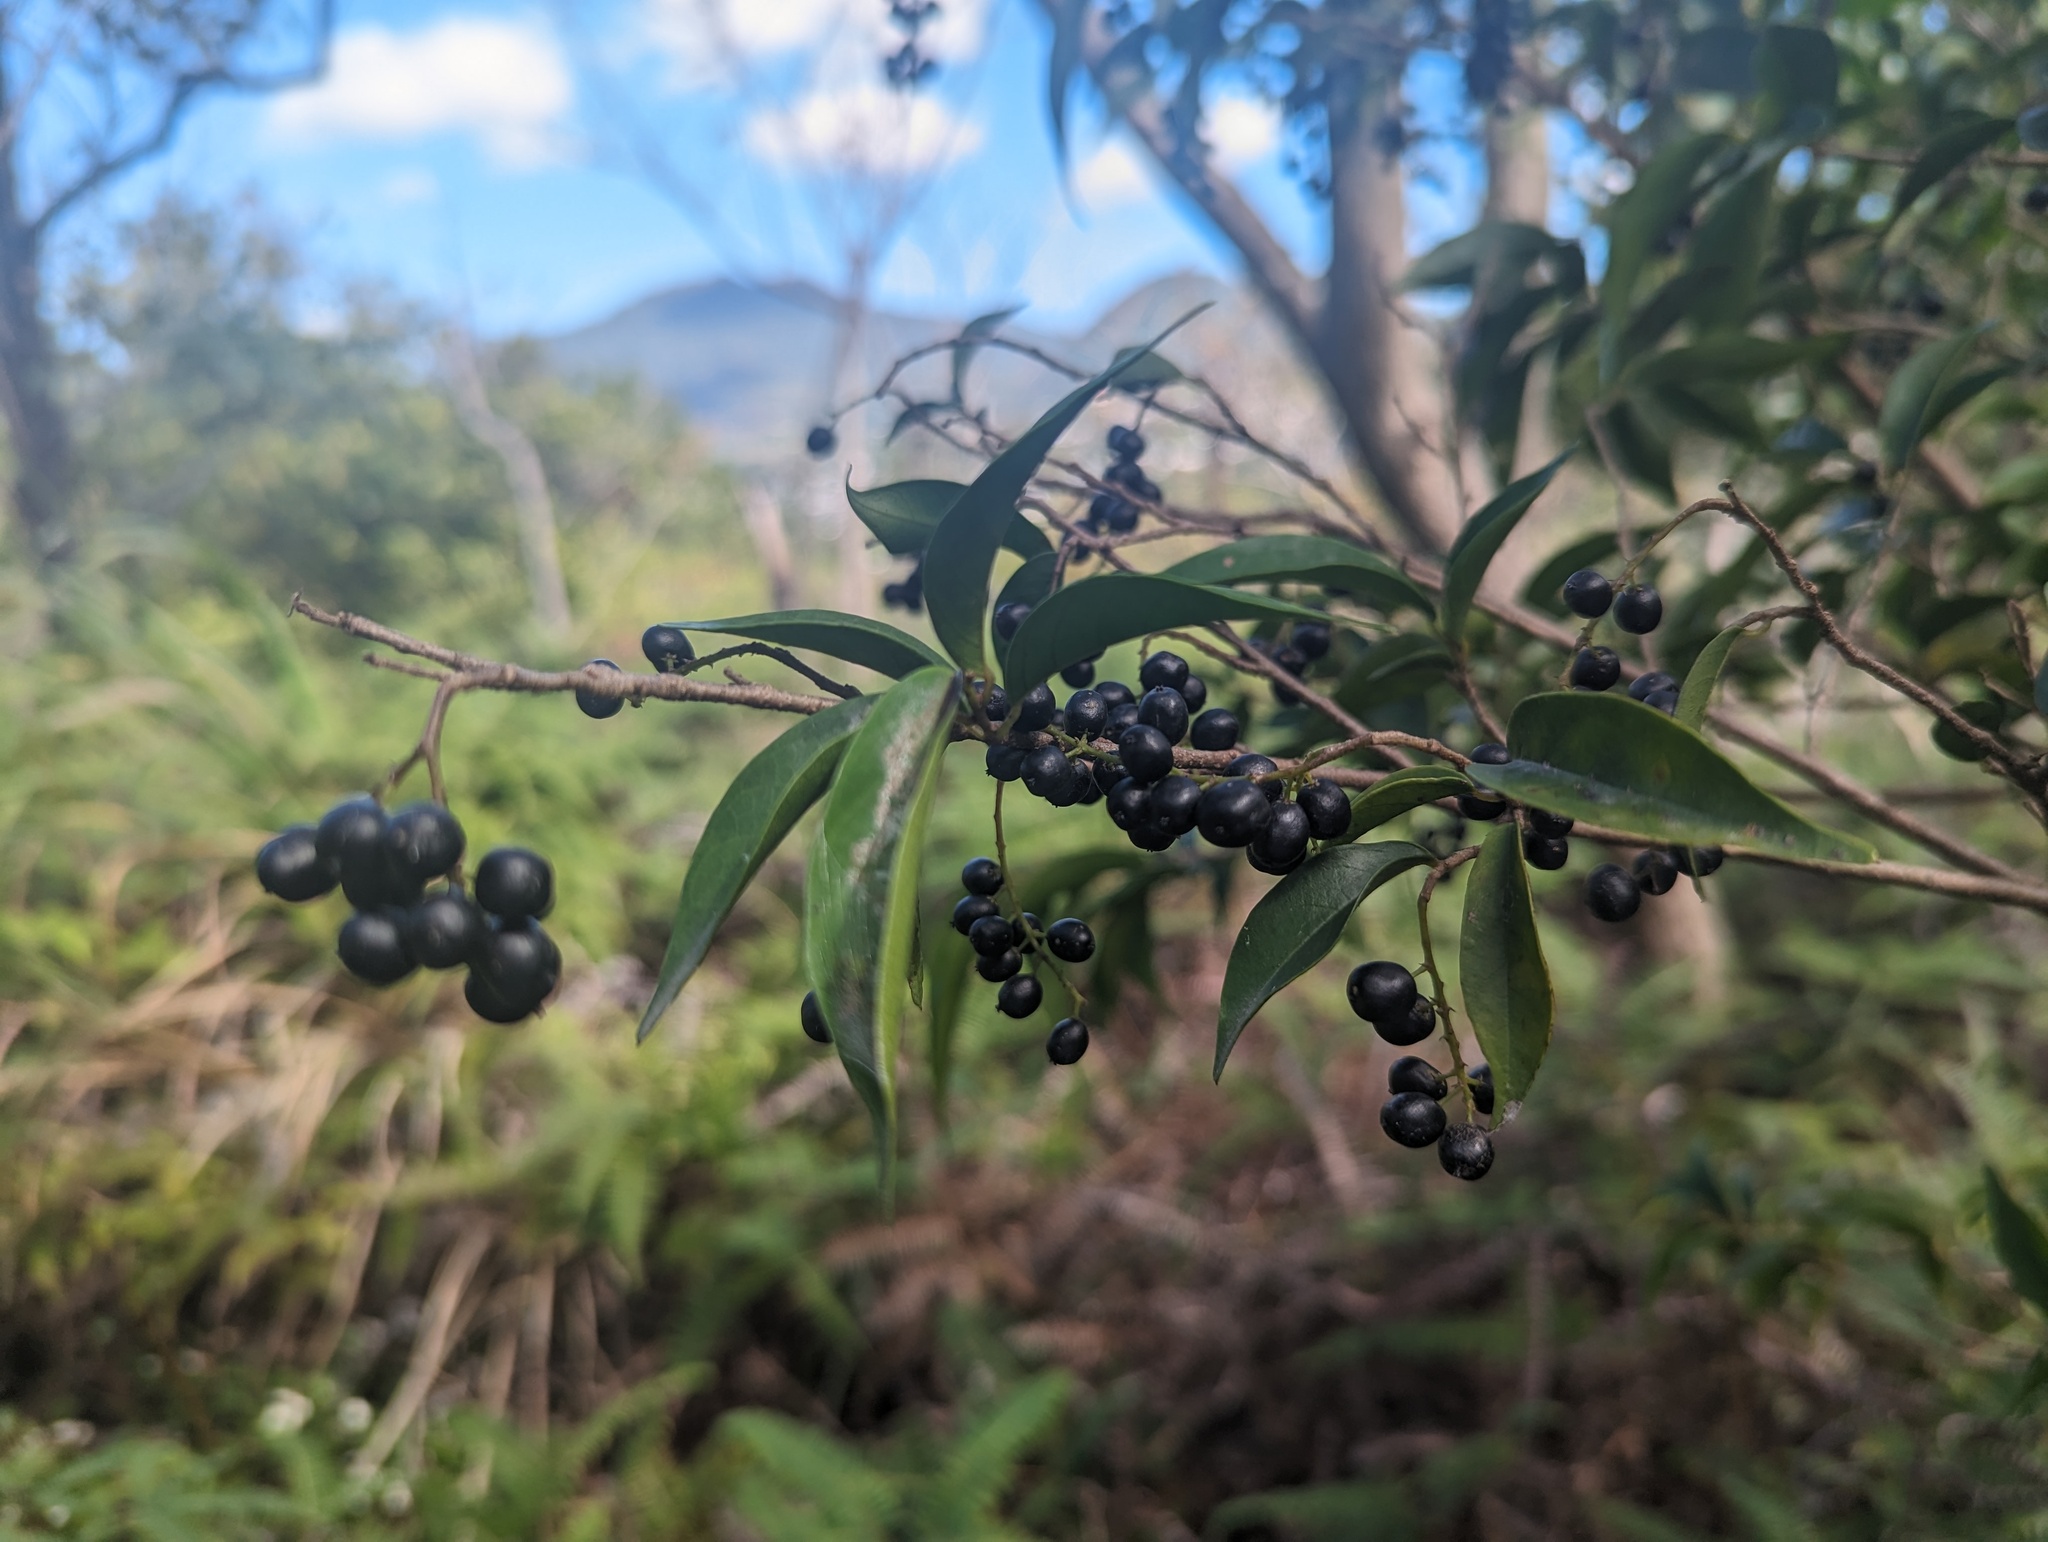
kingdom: Plantae
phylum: Tracheophyta
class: Magnoliopsida
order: Malpighiales
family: Phyllanthaceae
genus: Antidesma
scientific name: Antidesma japonicum
